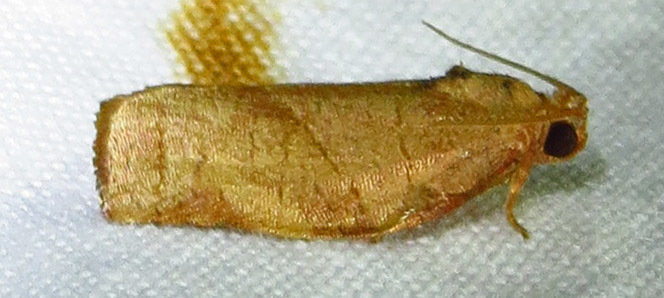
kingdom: Animalia
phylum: Arthropoda
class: Insecta
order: Lepidoptera
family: Tortricidae
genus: Choristoneura
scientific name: Choristoneura rosaceana
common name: Oblique-banded leafroller moth
